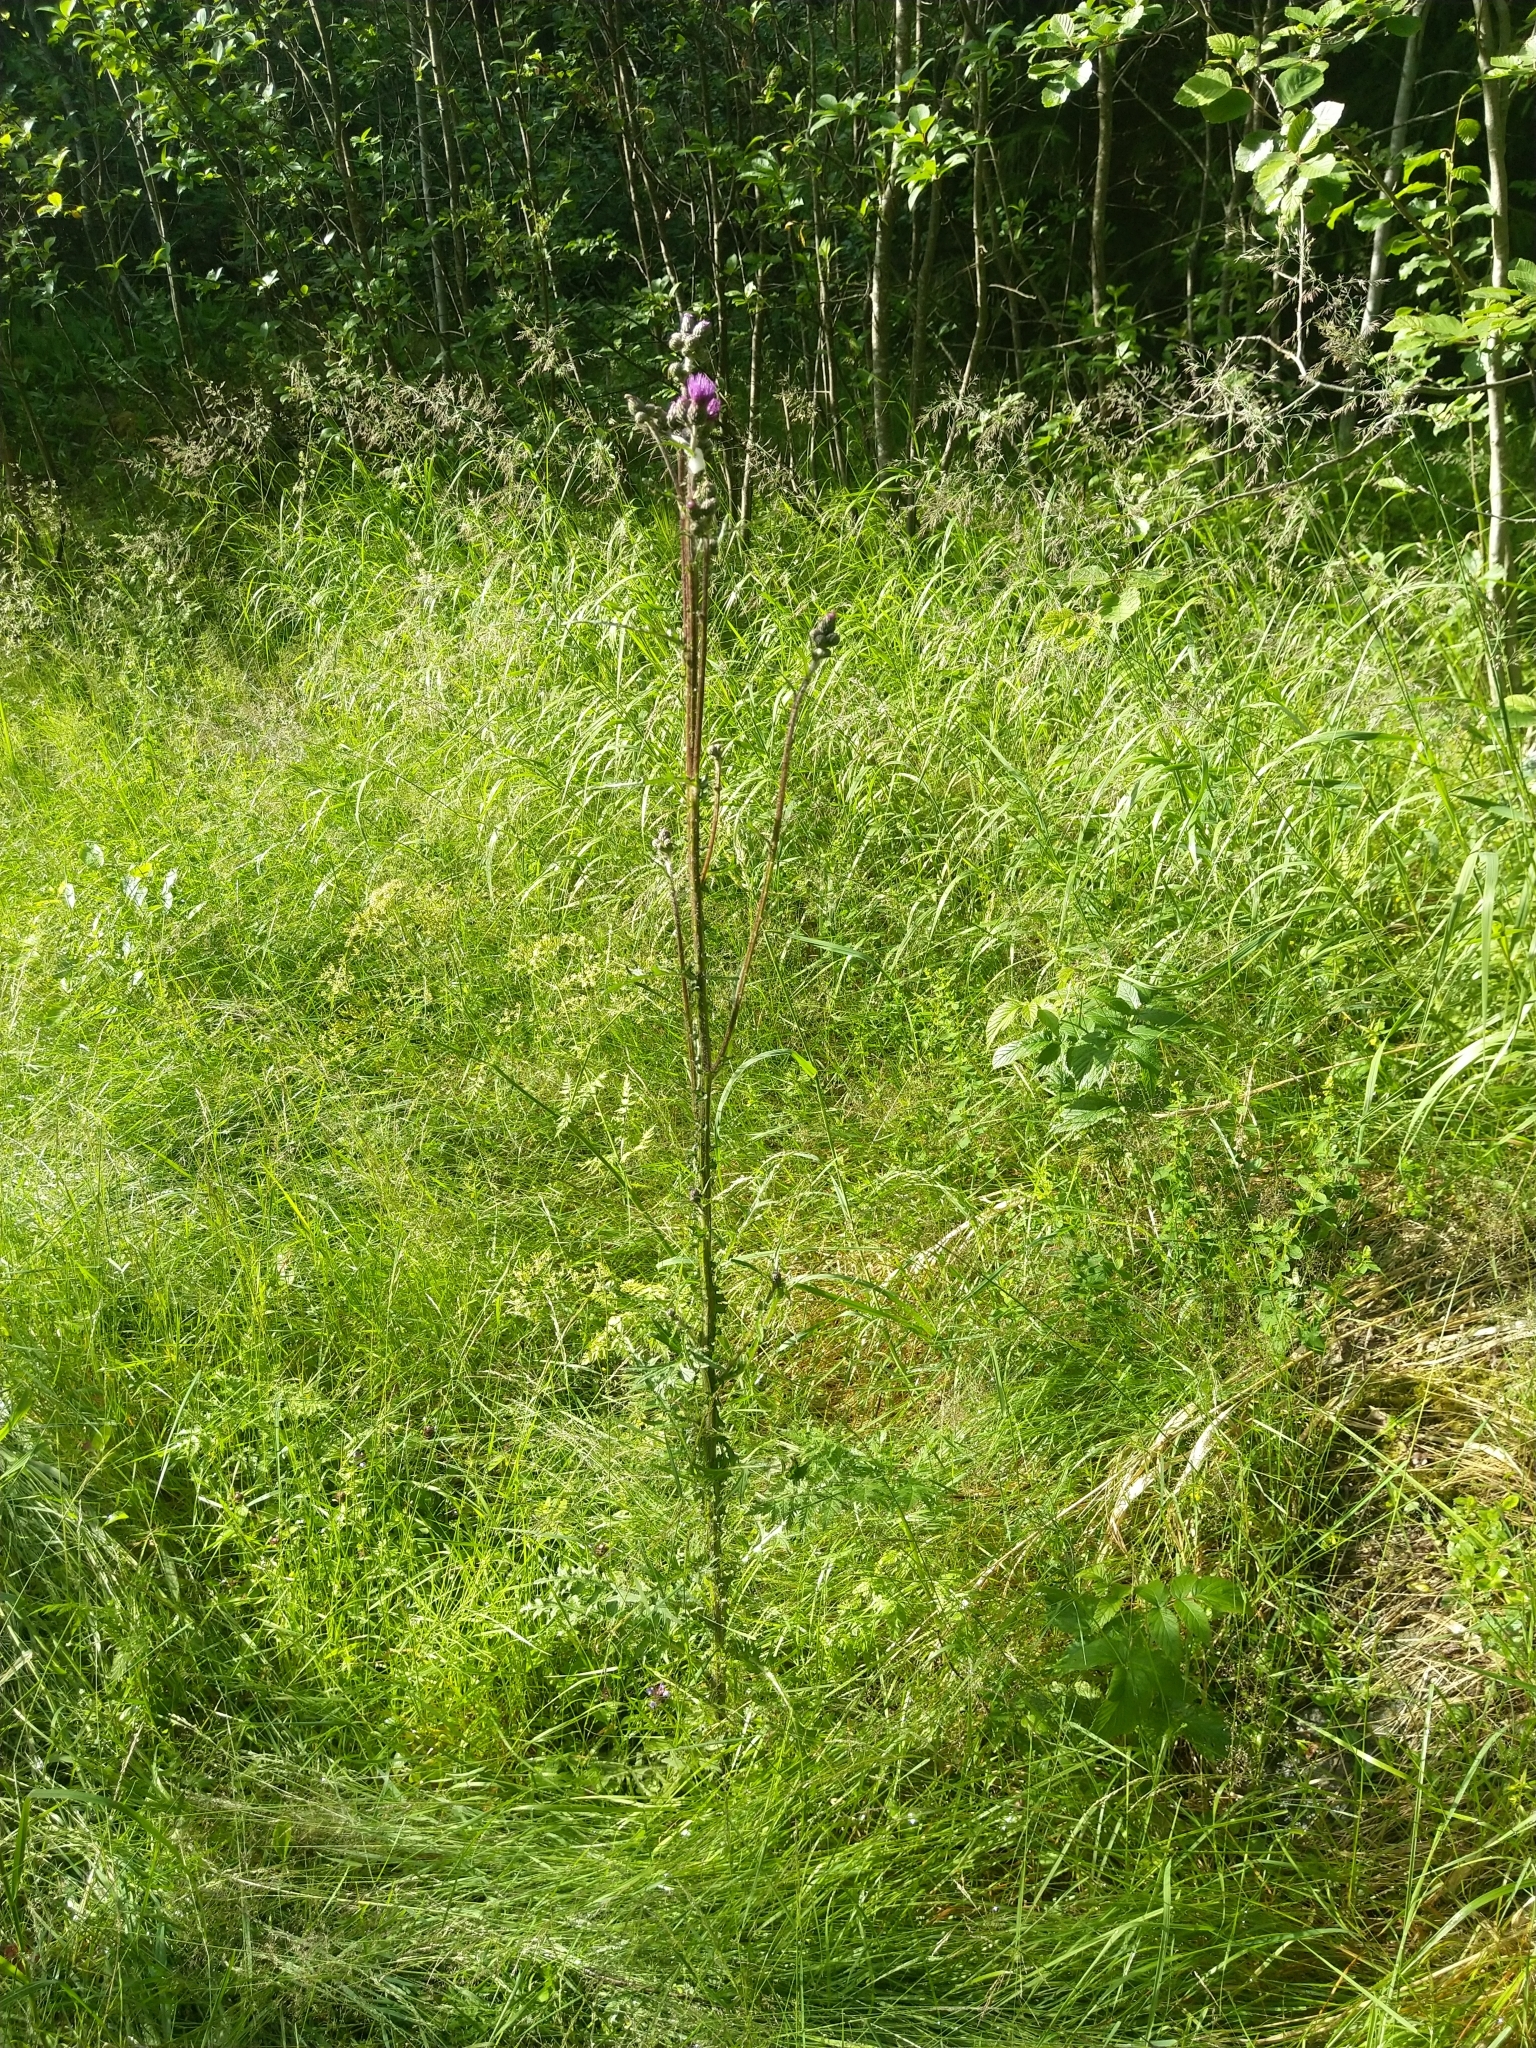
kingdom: Plantae
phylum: Tracheophyta
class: Magnoliopsida
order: Asterales
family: Asteraceae
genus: Cirsium
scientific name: Cirsium palustre
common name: Marsh thistle
